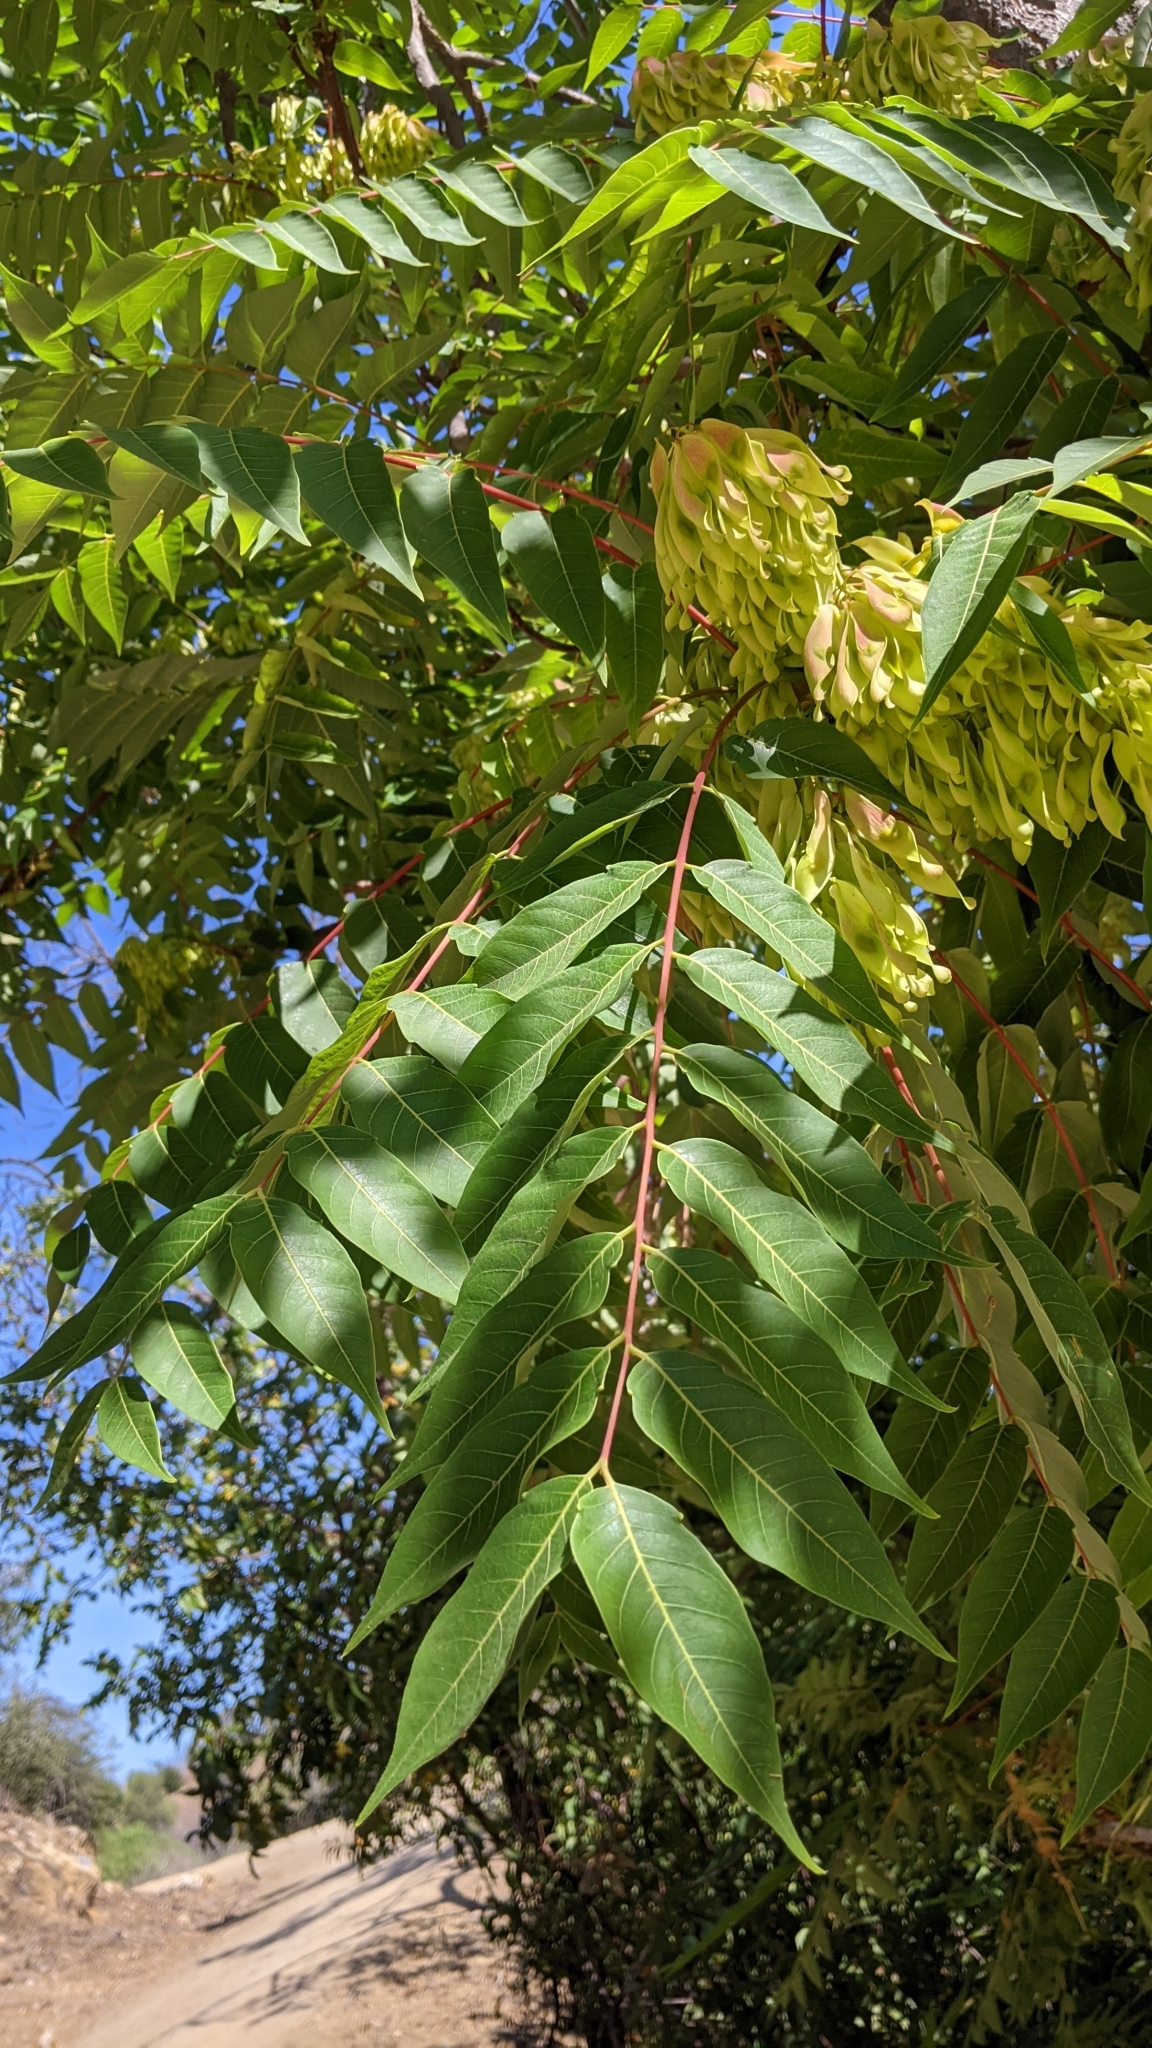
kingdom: Plantae
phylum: Tracheophyta
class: Magnoliopsida
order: Sapindales
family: Simaroubaceae
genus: Ailanthus
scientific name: Ailanthus altissima
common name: Tree-of-heaven
